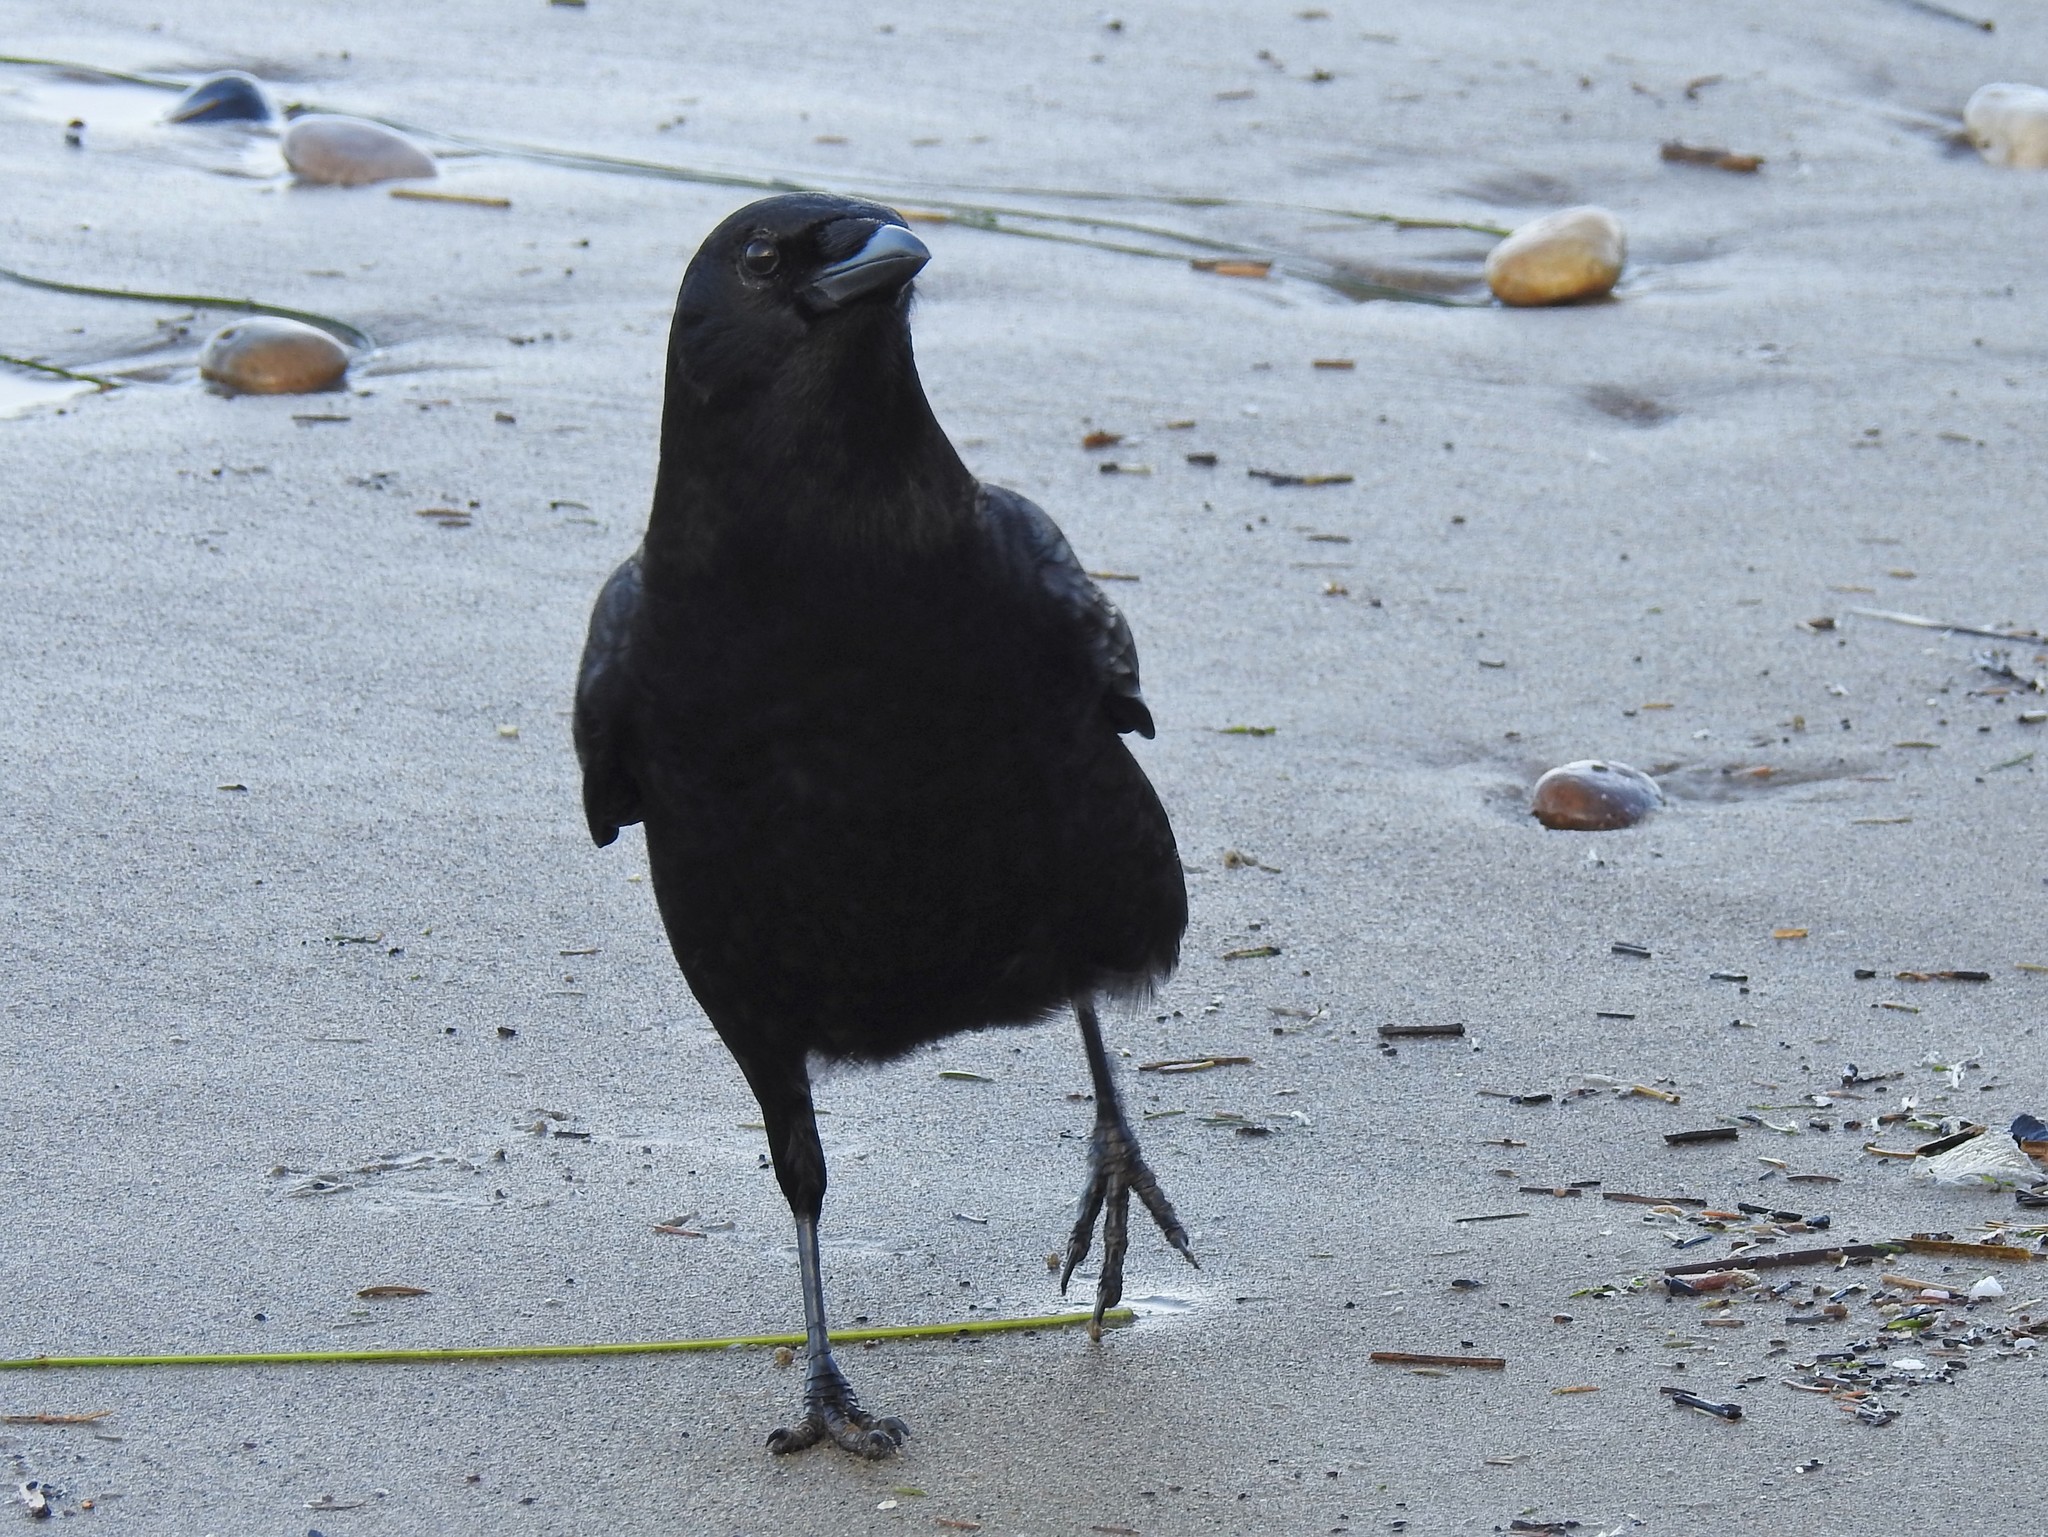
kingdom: Animalia
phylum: Chordata
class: Aves
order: Passeriformes
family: Corvidae
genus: Corvus
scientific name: Corvus brachyrhynchos
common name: American crow
